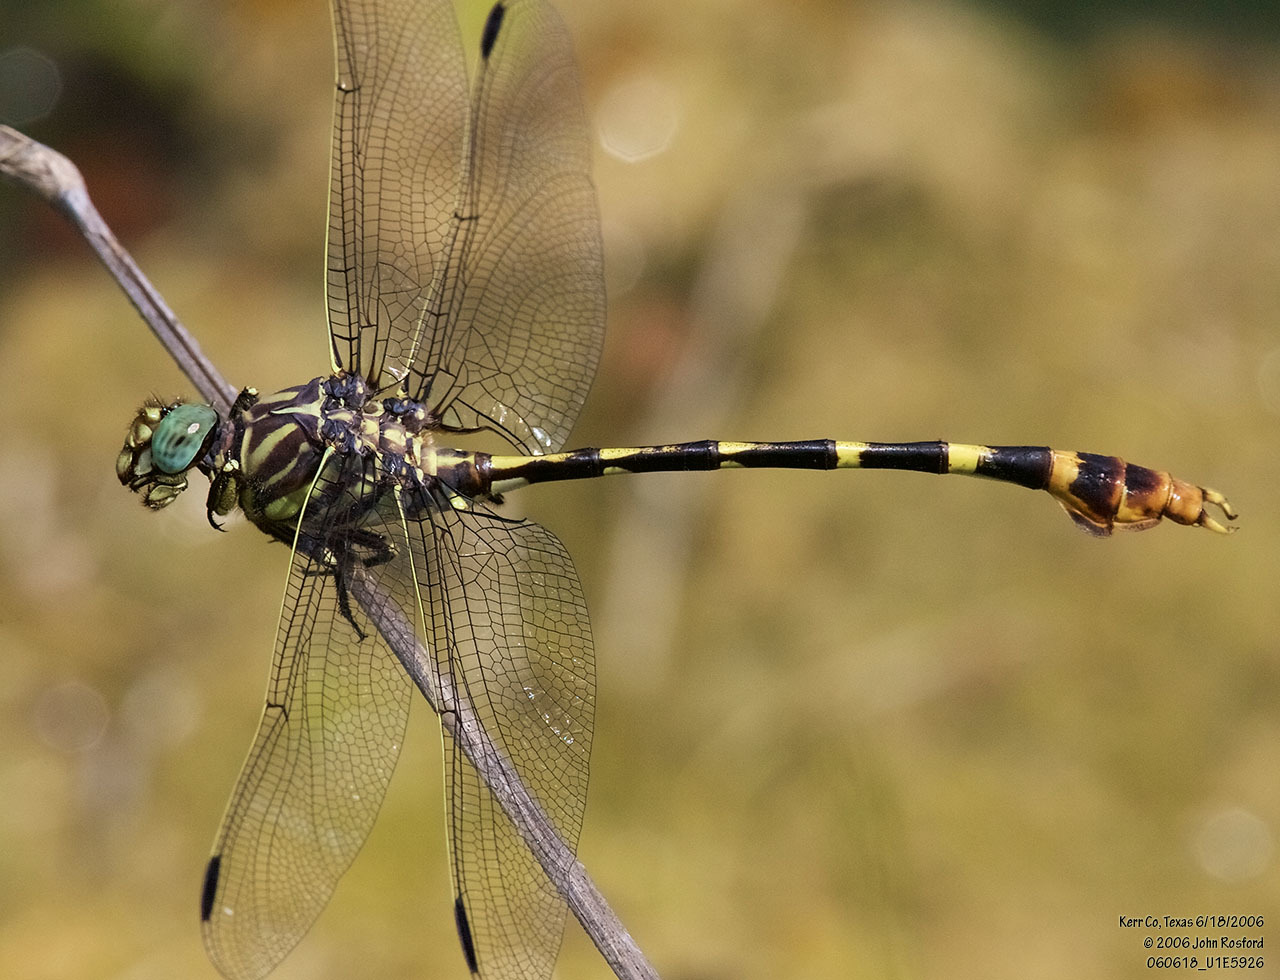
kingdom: Animalia
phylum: Arthropoda
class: Insecta
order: Odonata
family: Gomphidae
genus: Phyllogomphoides
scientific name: Phyllogomphoides stigmatus
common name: Four-striped leaftail
